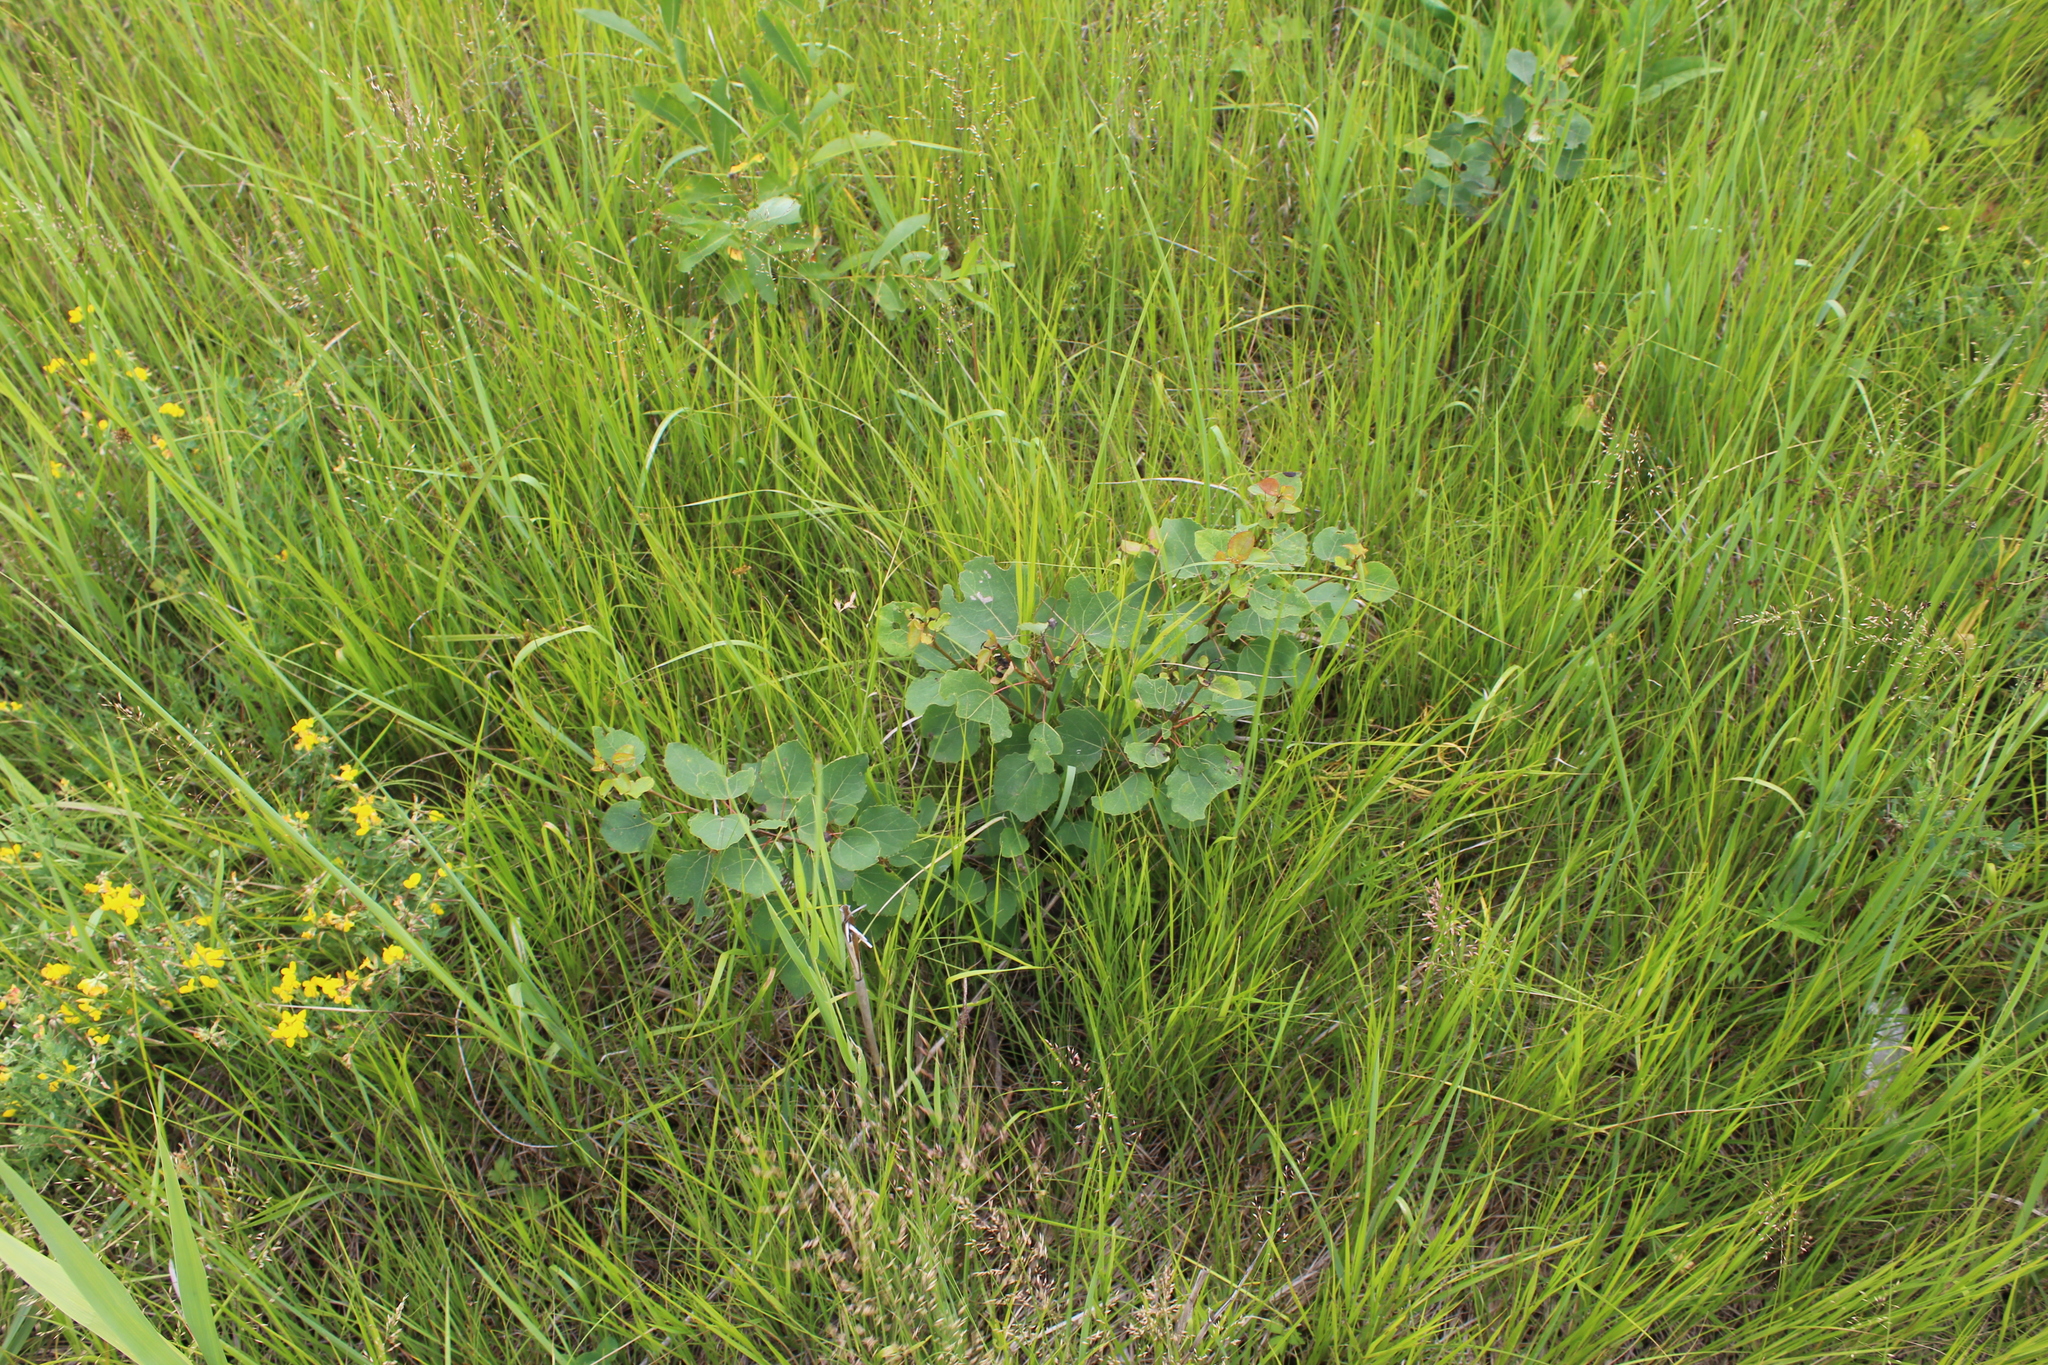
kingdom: Plantae
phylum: Tracheophyta
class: Magnoliopsida
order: Malpighiales
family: Salicaceae
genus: Populus
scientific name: Populus tremula
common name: European aspen
